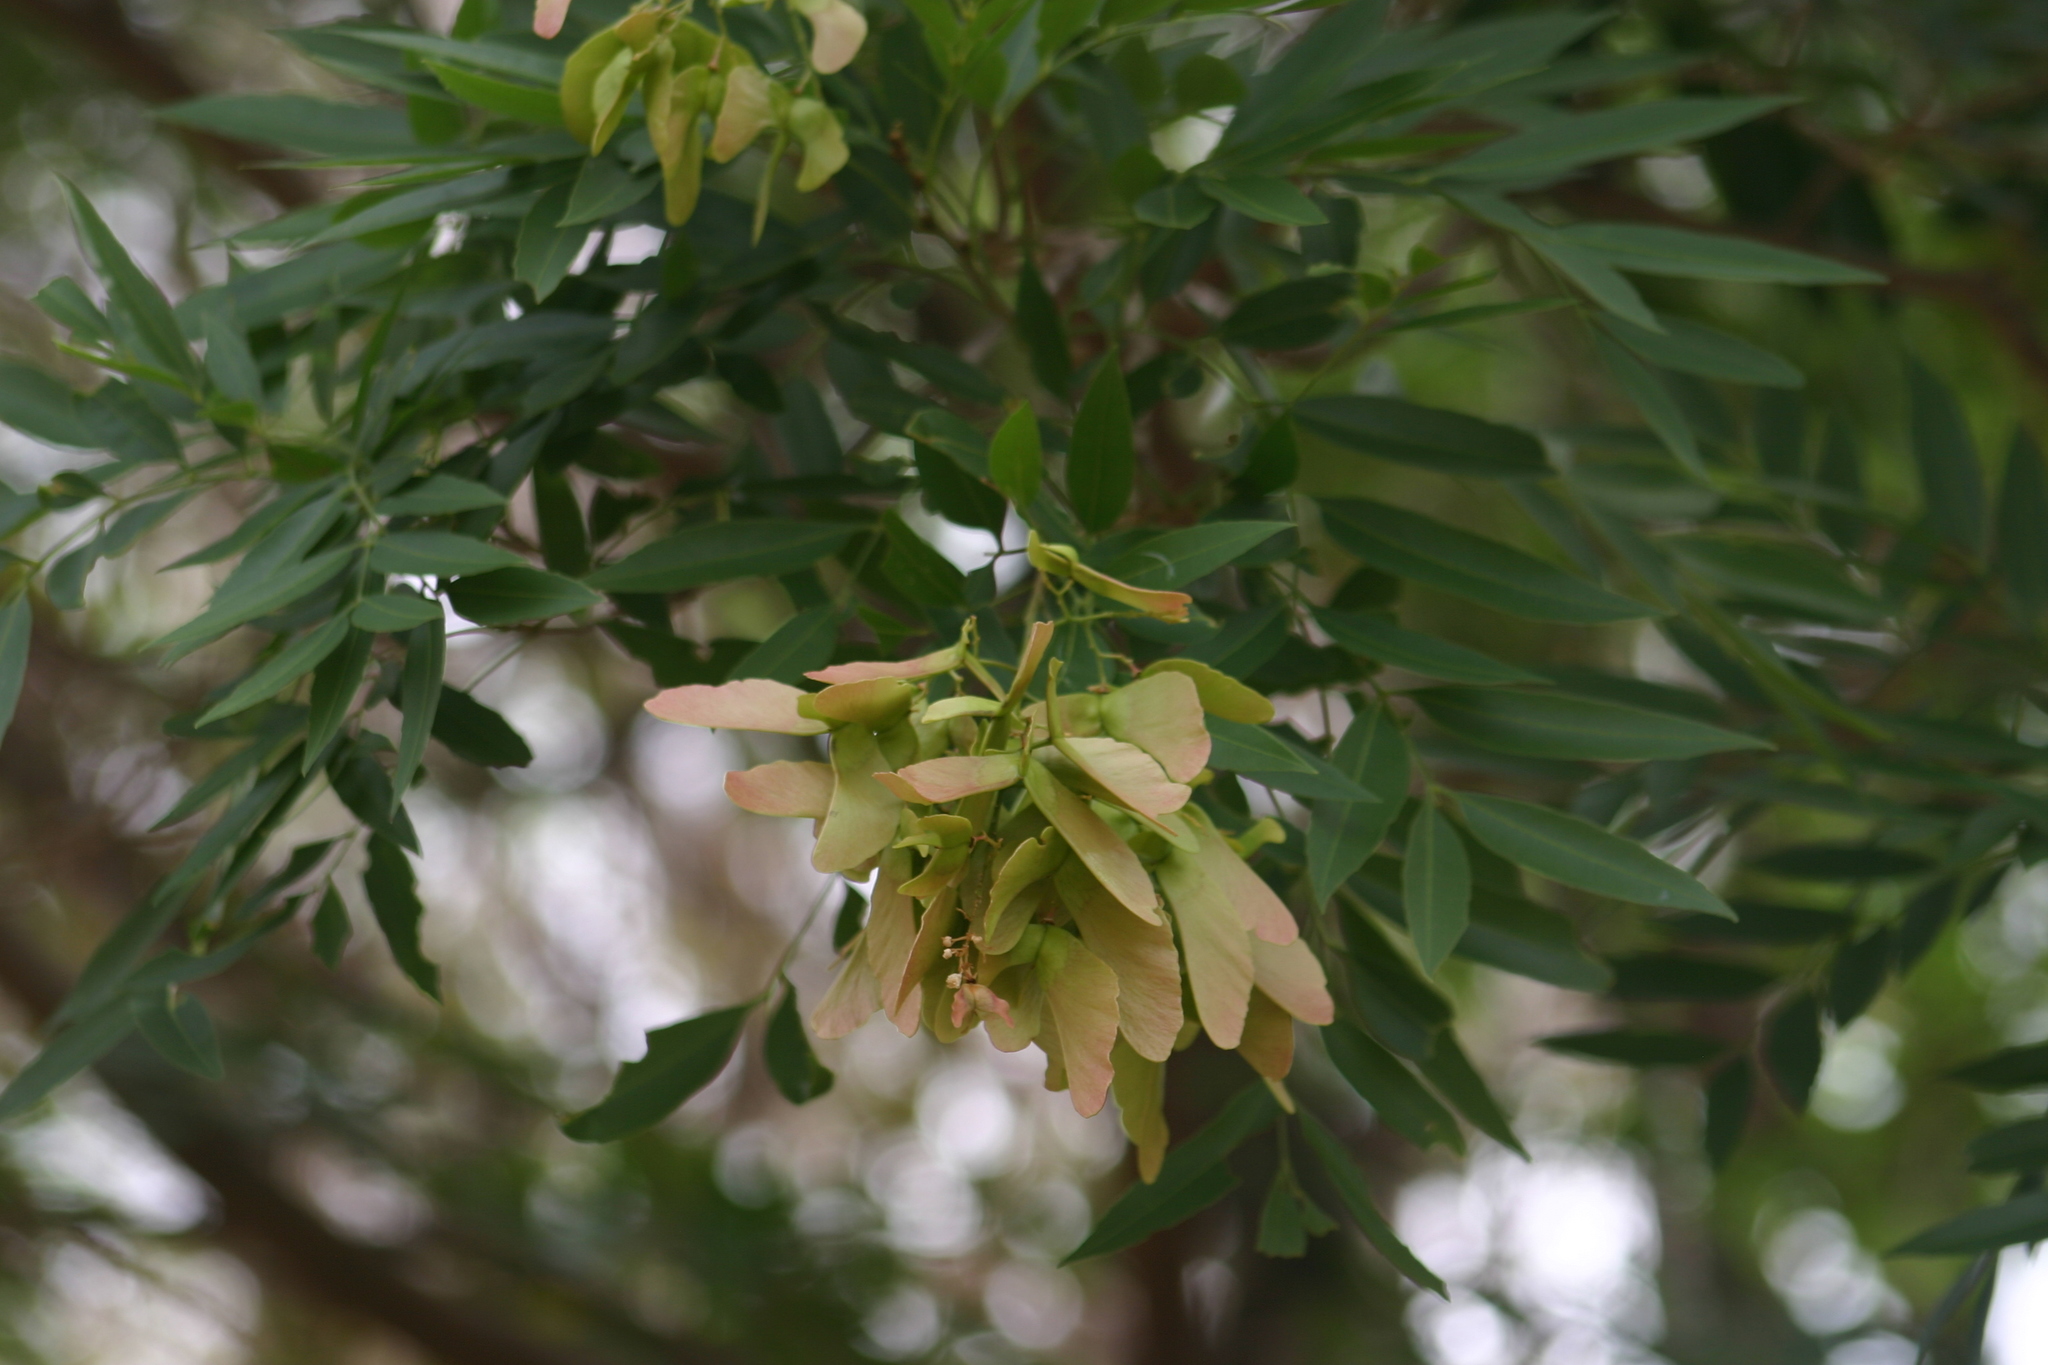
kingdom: Plantae
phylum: Tracheophyta
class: Magnoliopsida
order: Sapindales
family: Sapindaceae
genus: Thouinidium
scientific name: Thouinidium decandrum
